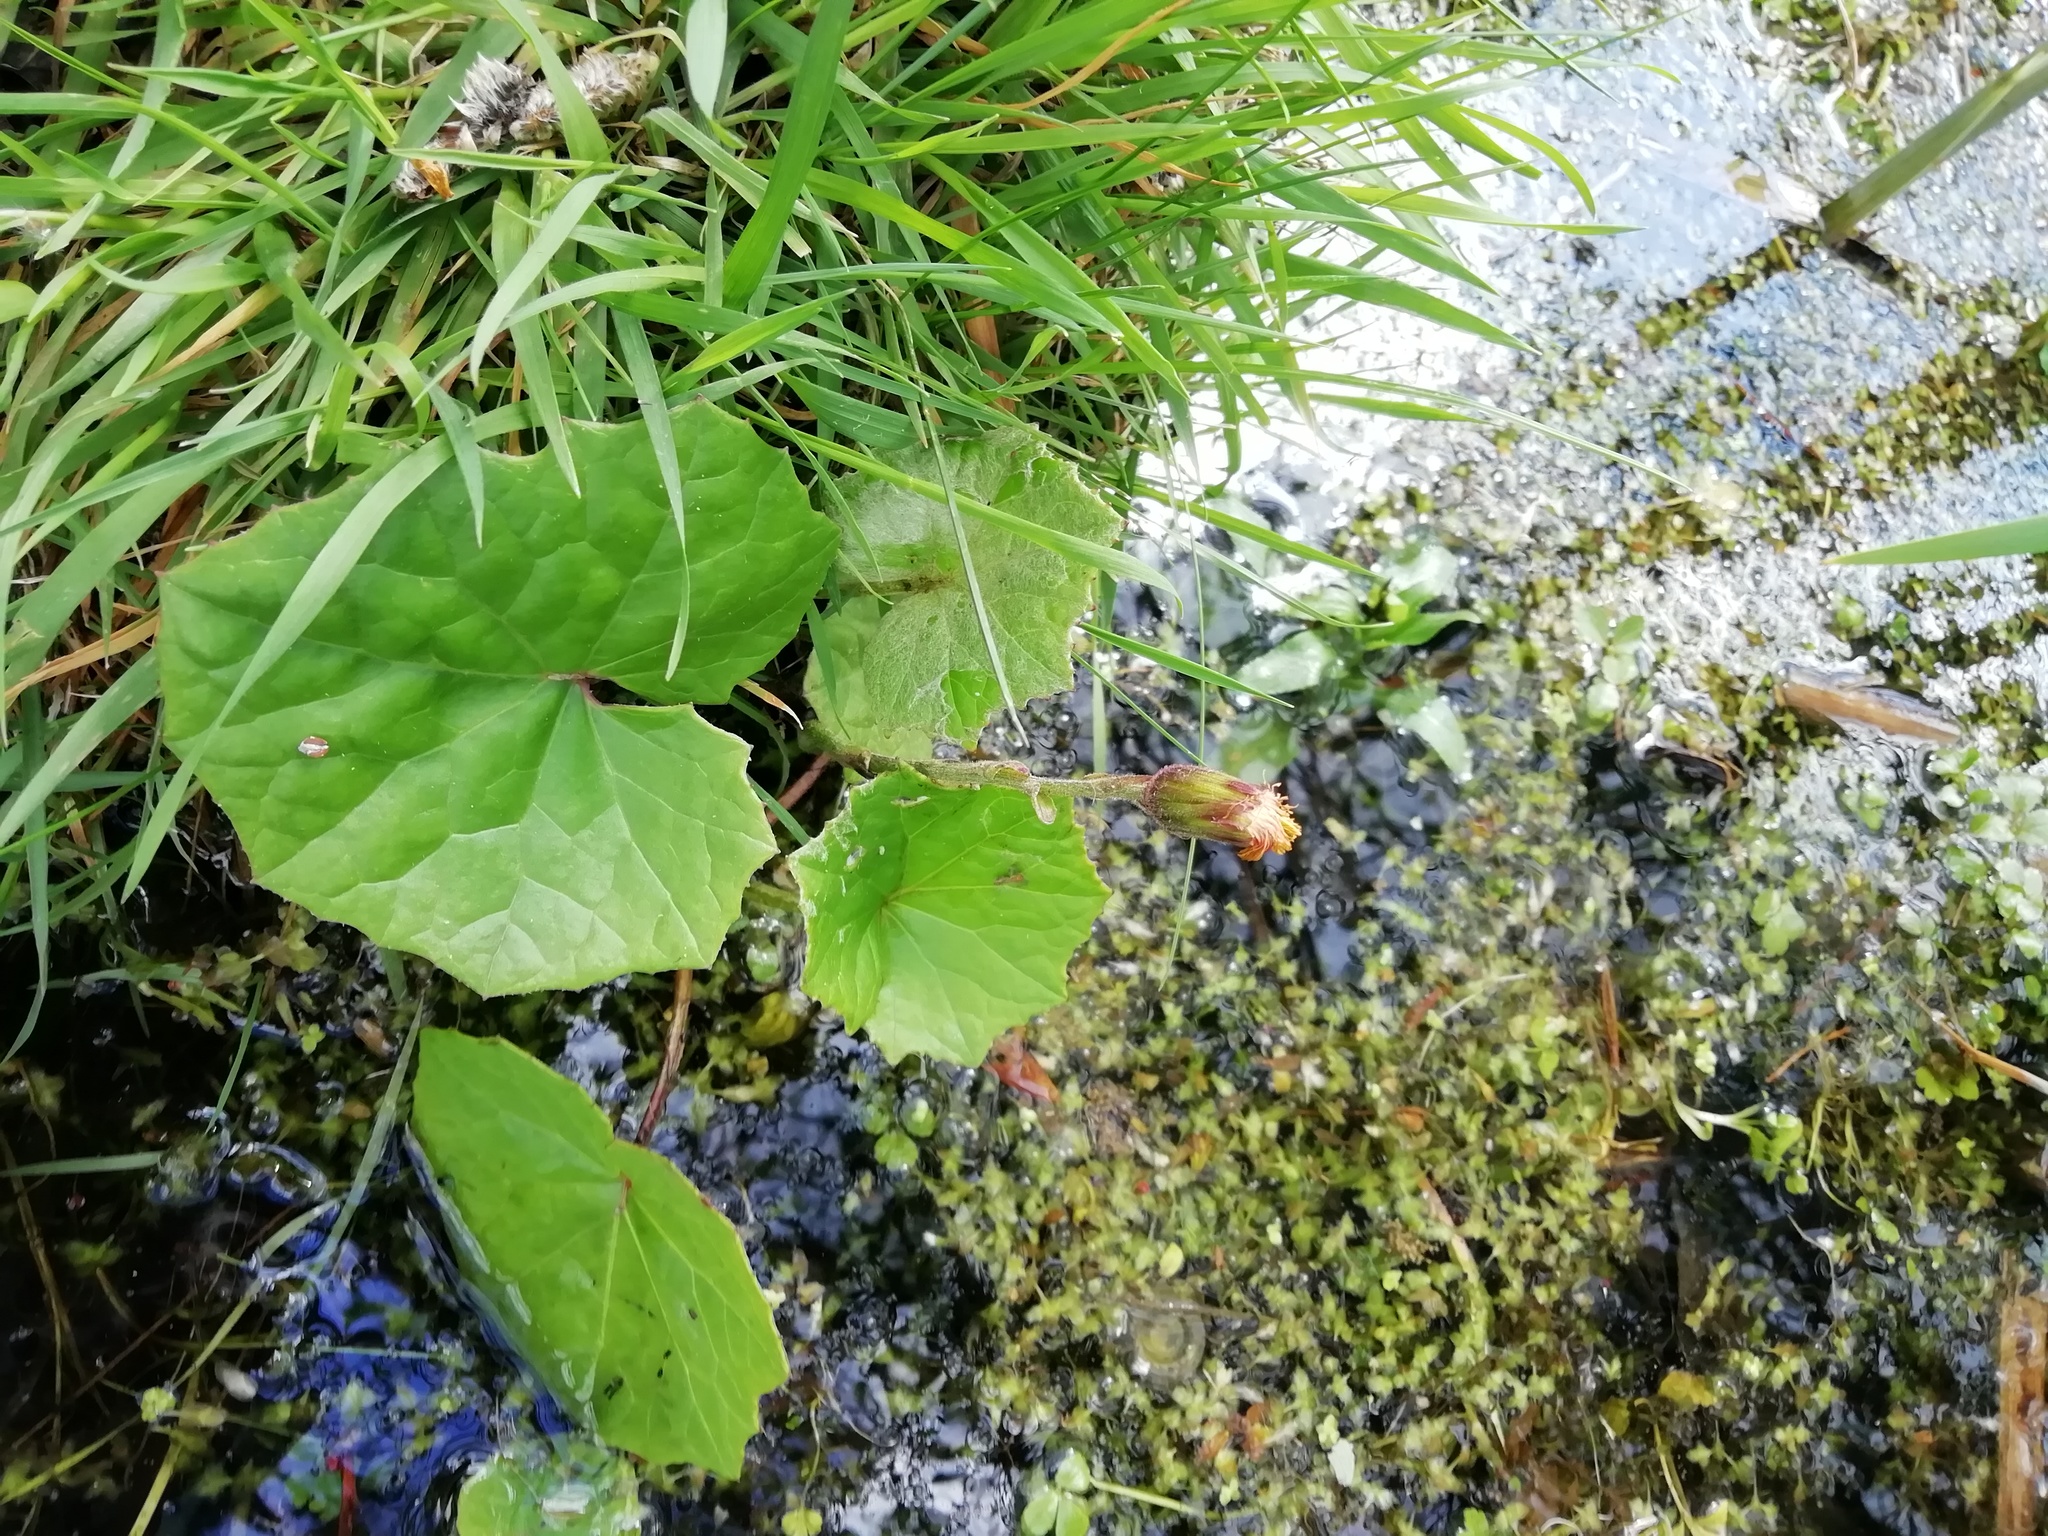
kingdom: Plantae
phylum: Tracheophyta
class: Magnoliopsida
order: Asterales
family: Asteraceae
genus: Tussilago
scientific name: Tussilago farfara
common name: Coltsfoot
